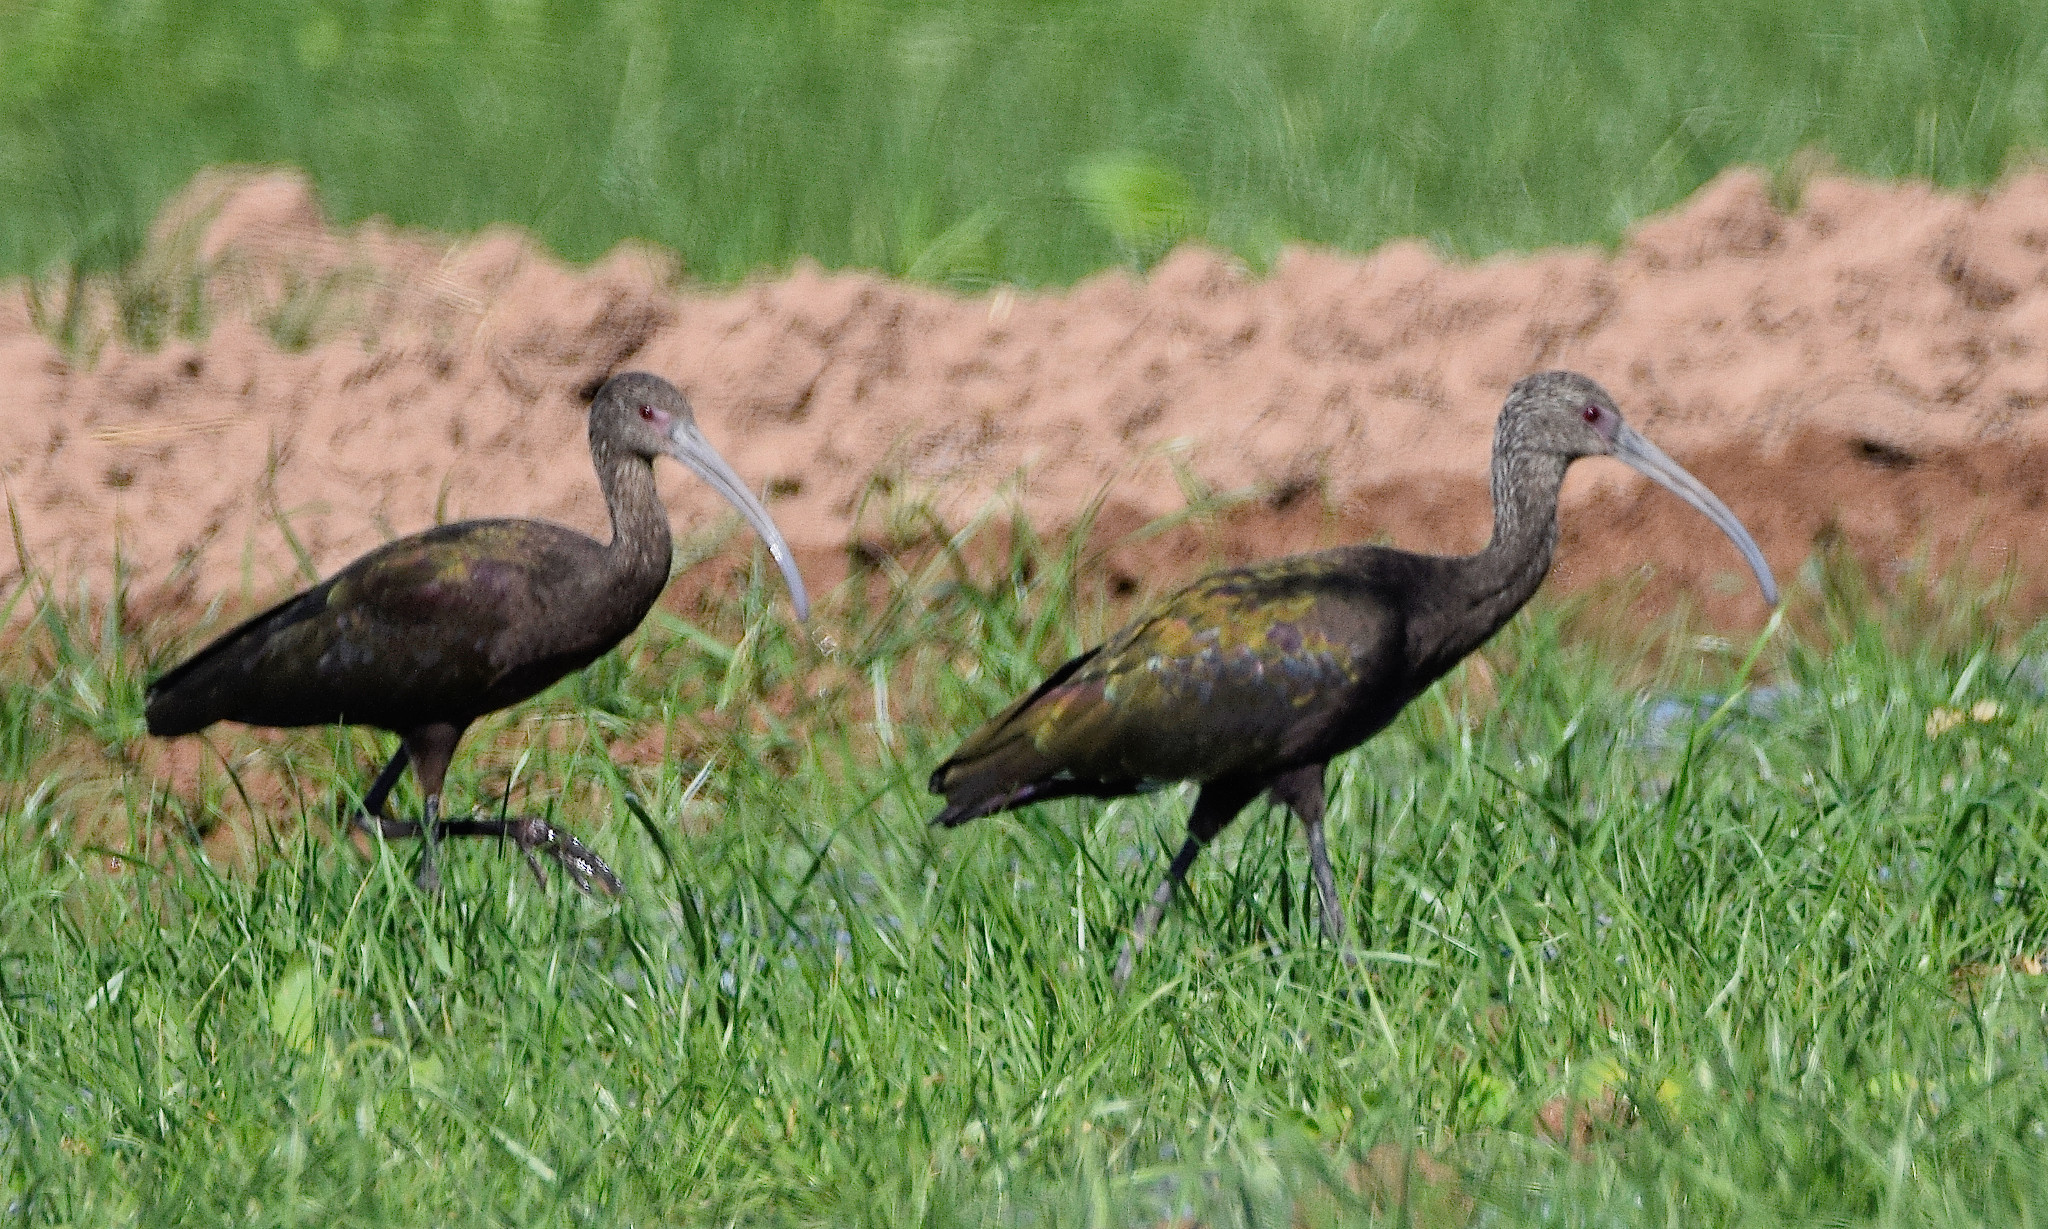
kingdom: Animalia
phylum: Chordata
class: Aves
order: Pelecaniformes
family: Threskiornithidae
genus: Plegadis
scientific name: Plegadis chihi
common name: White-faced ibis
